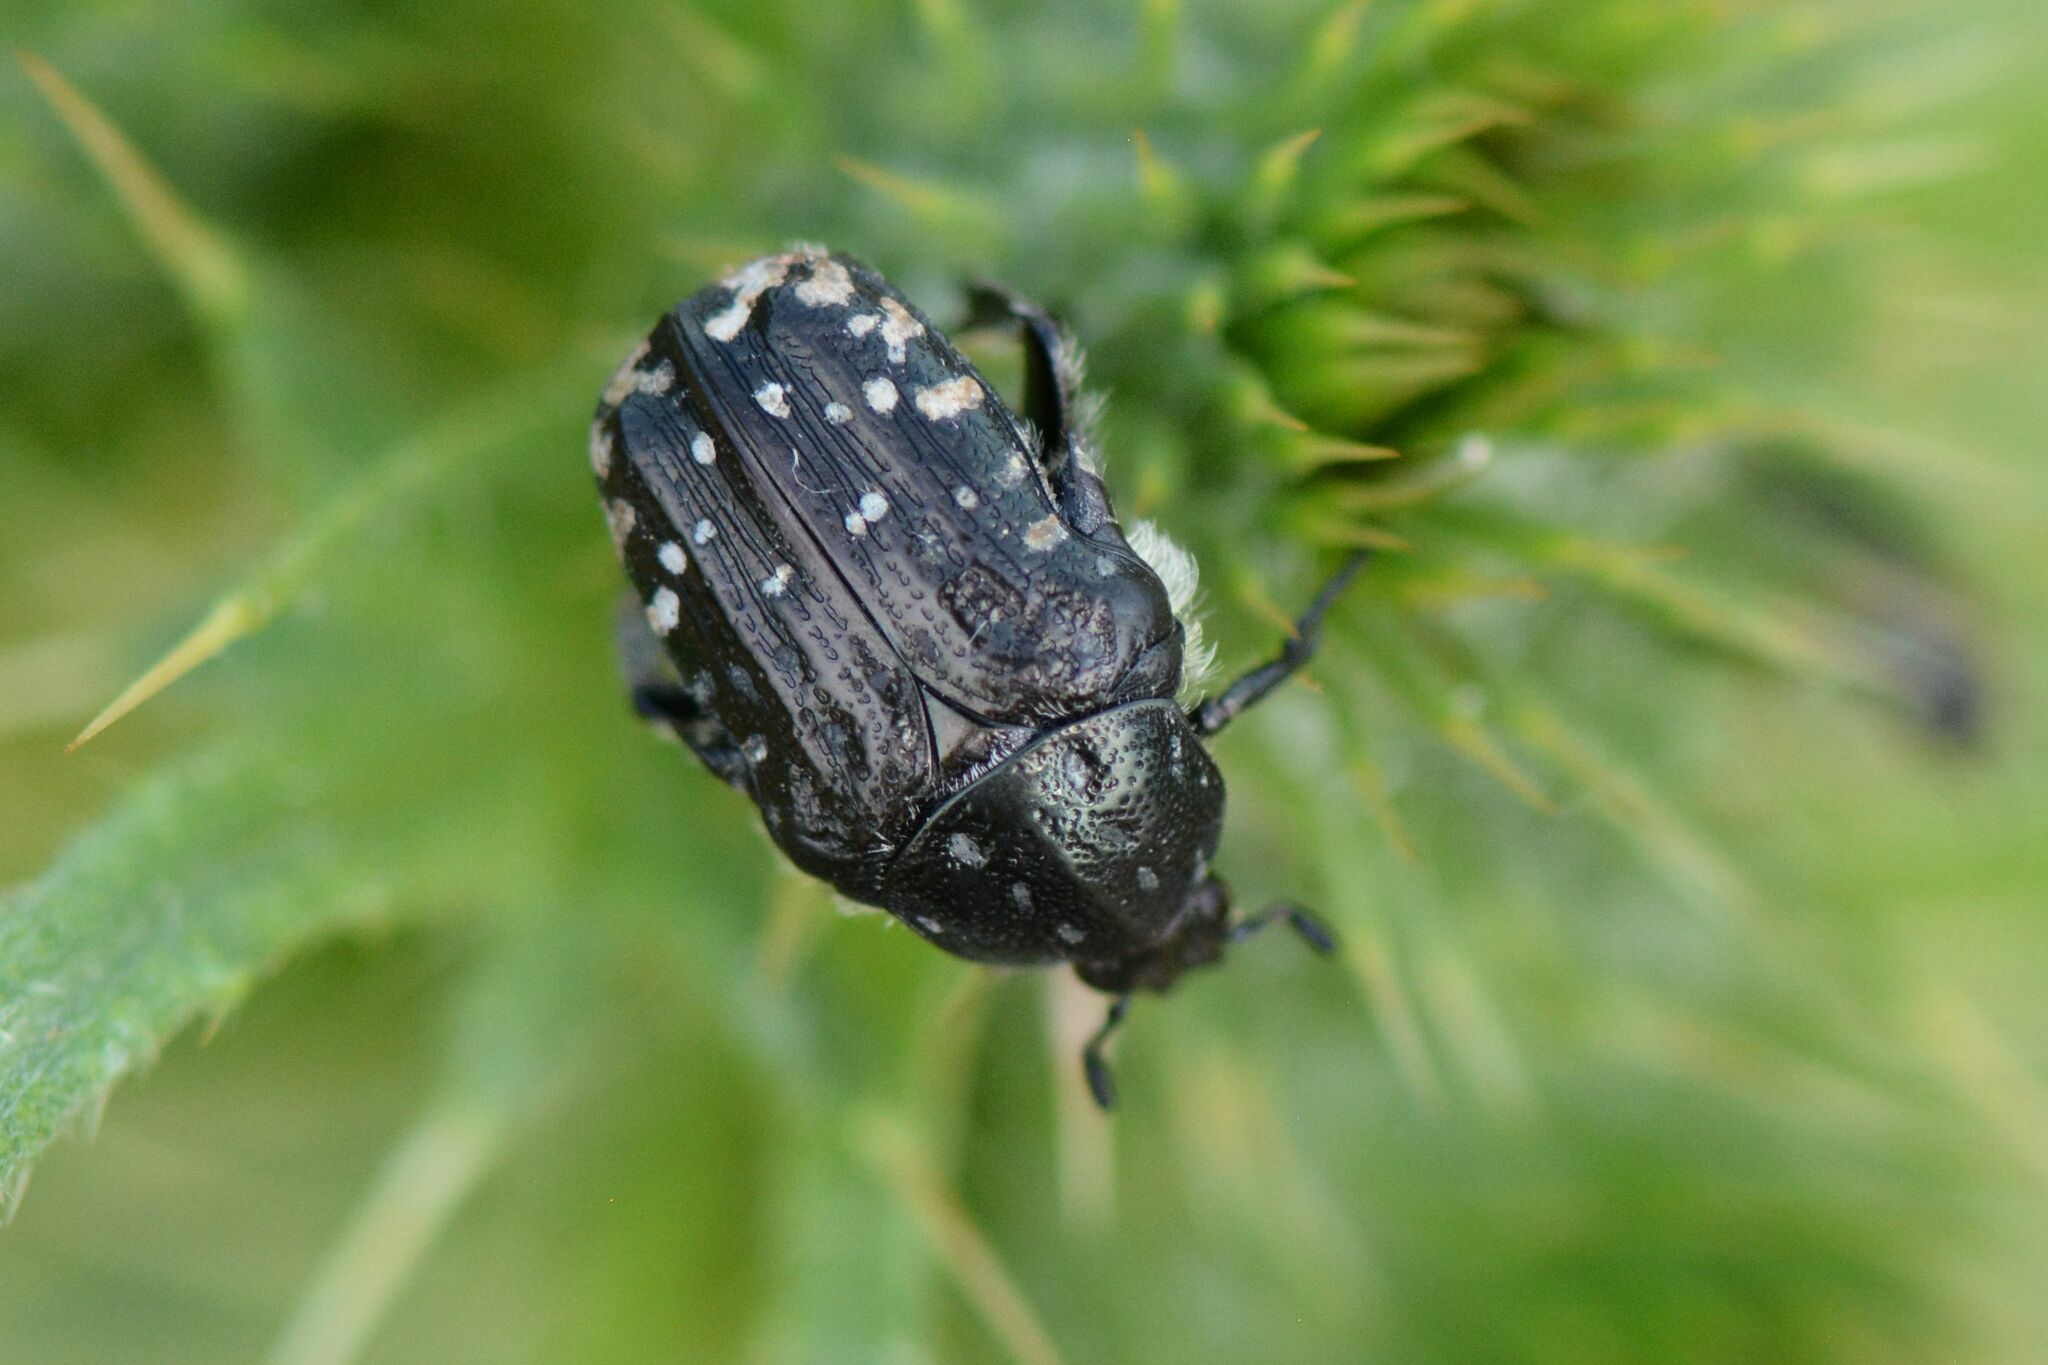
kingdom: Animalia
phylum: Arthropoda
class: Insecta
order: Coleoptera
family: Scarabaeidae
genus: Oxythyrea
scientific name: Oxythyrea funesta
